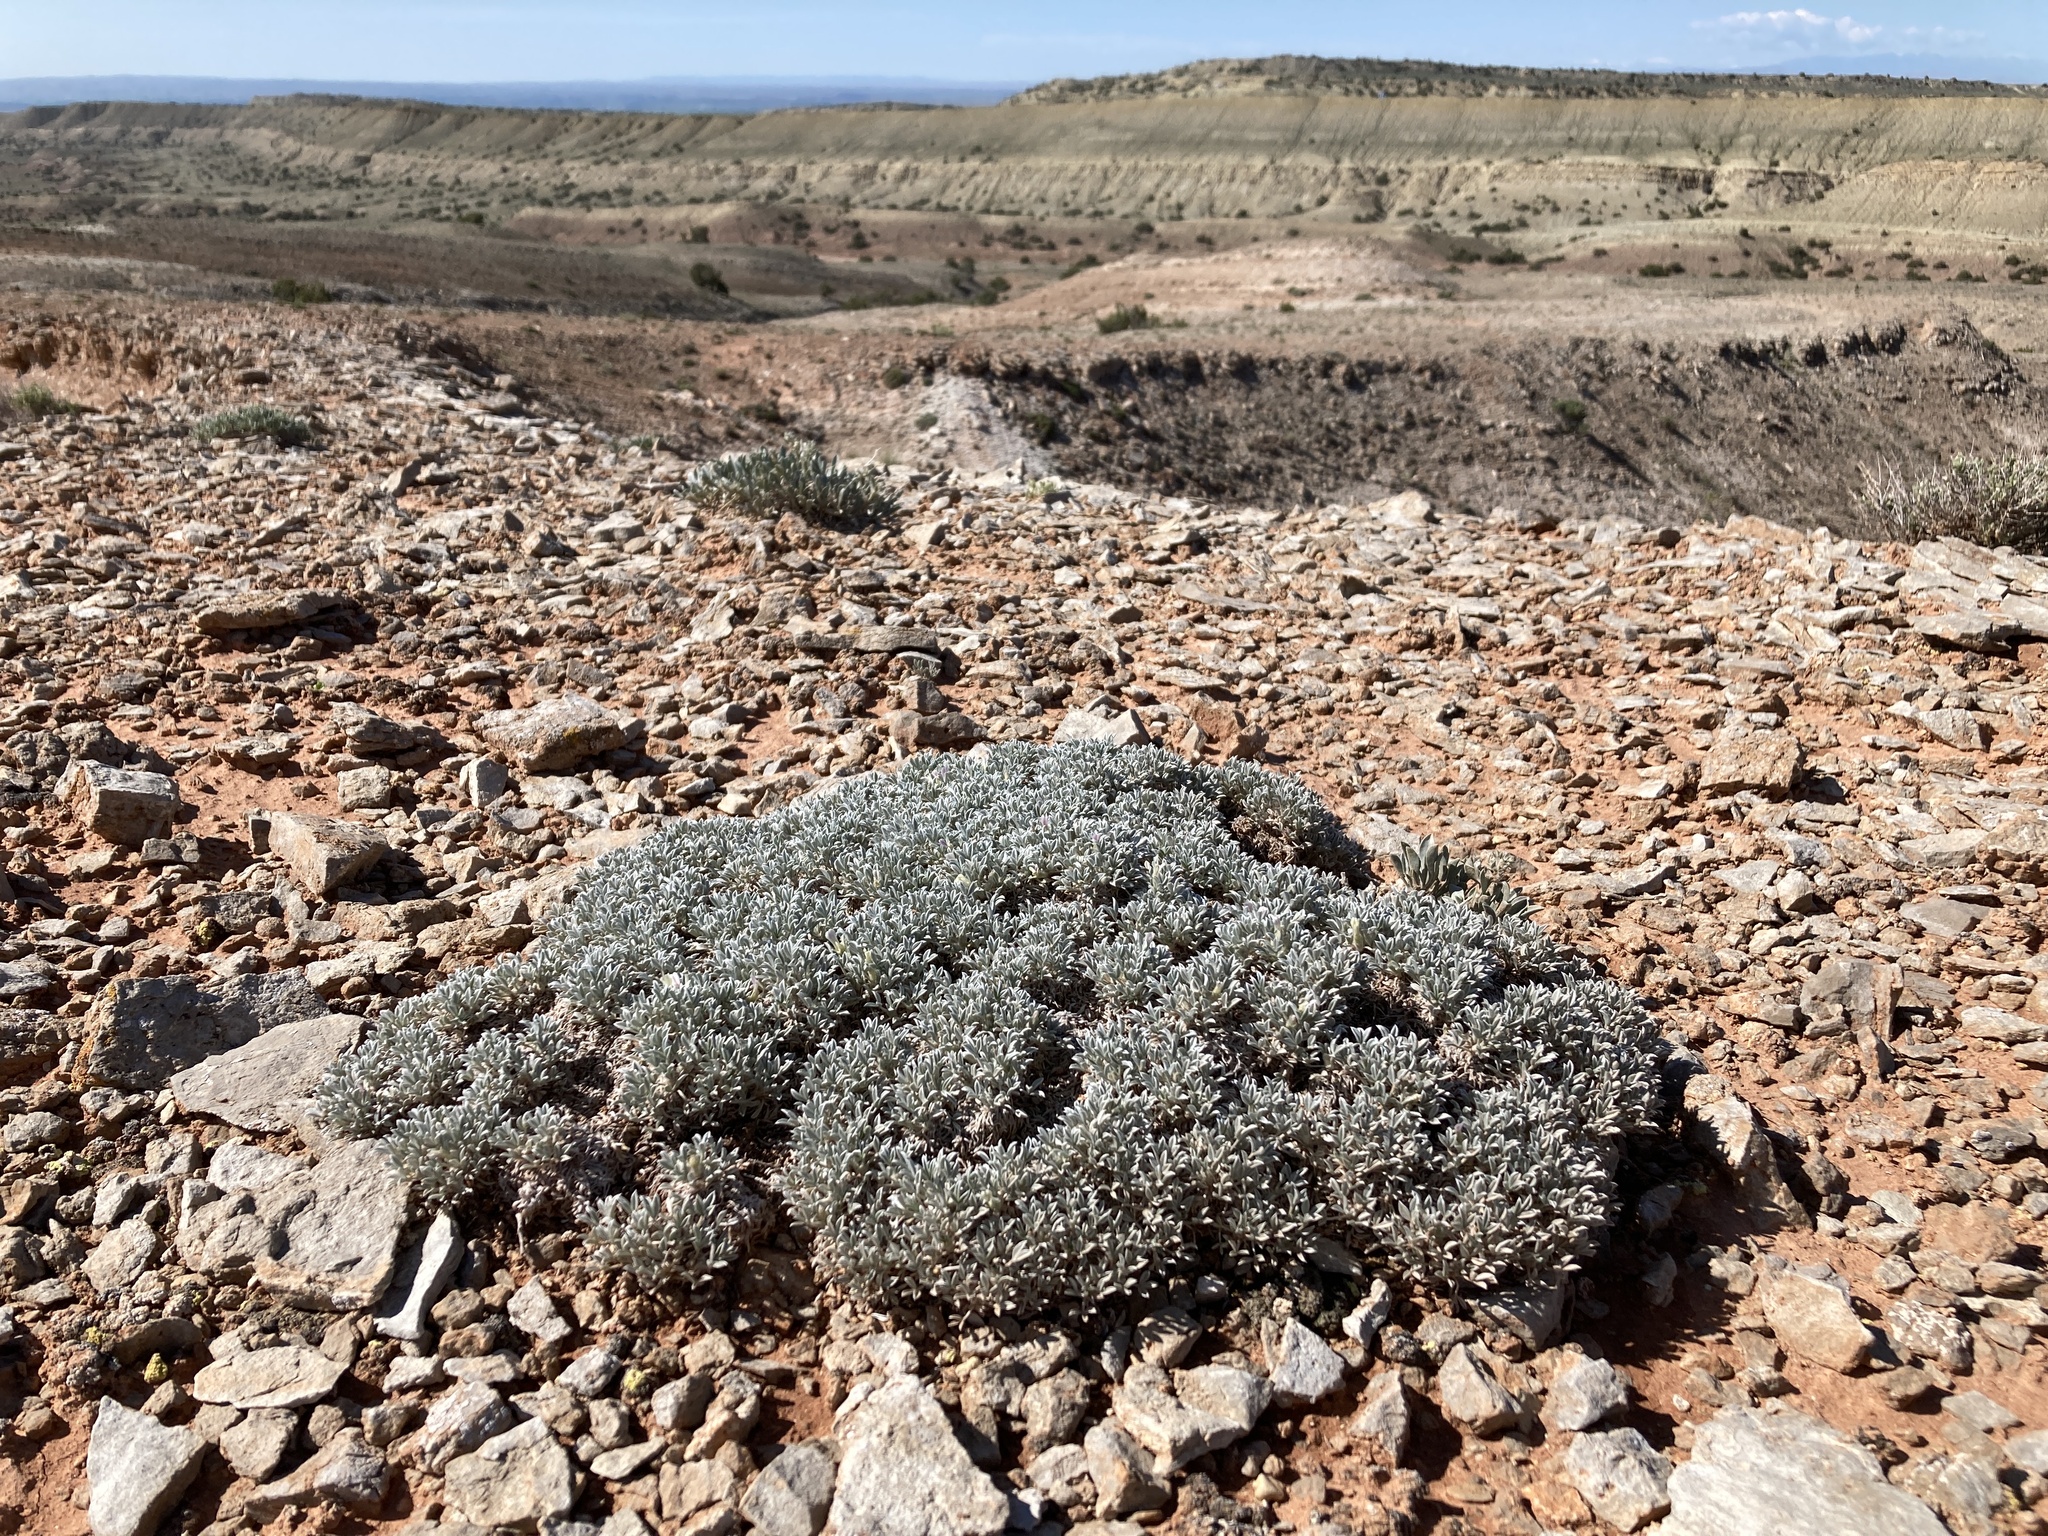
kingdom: Plantae
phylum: Tracheophyta
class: Magnoliopsida
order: Fabales
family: Fabaceae
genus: Astragalus
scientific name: Astragalus hyalinus
